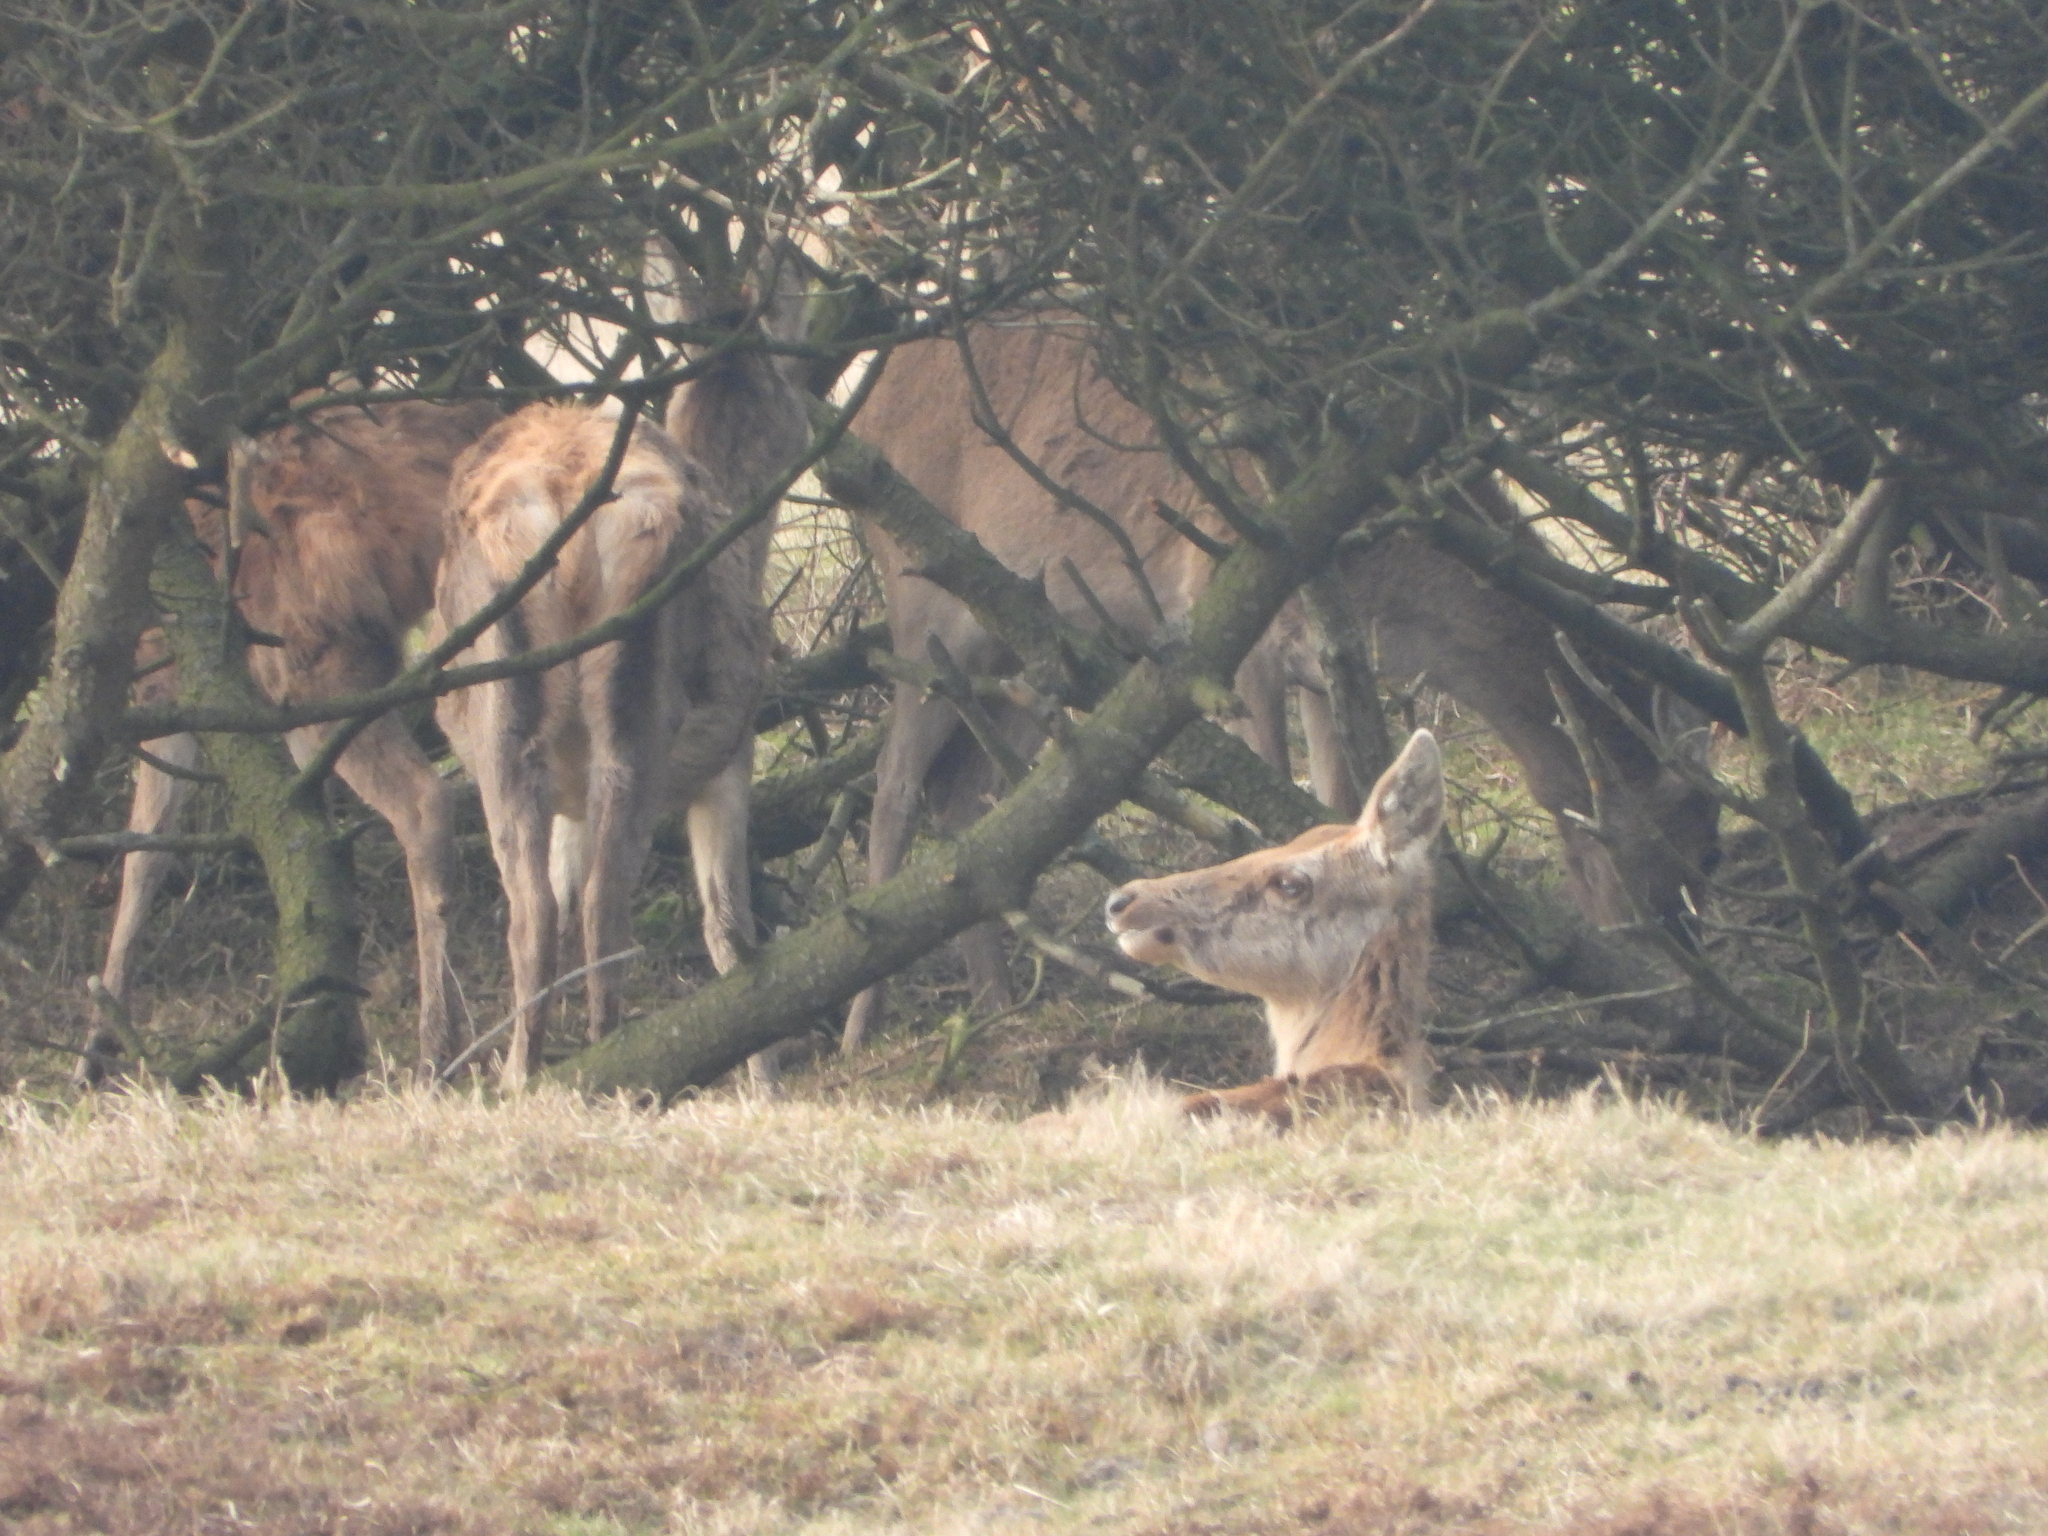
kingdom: Animalia
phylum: Chordata
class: Mammalia
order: Artiodactyla
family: Cervidae
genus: Cervus
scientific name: Cervus elaphus
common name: Red deer
